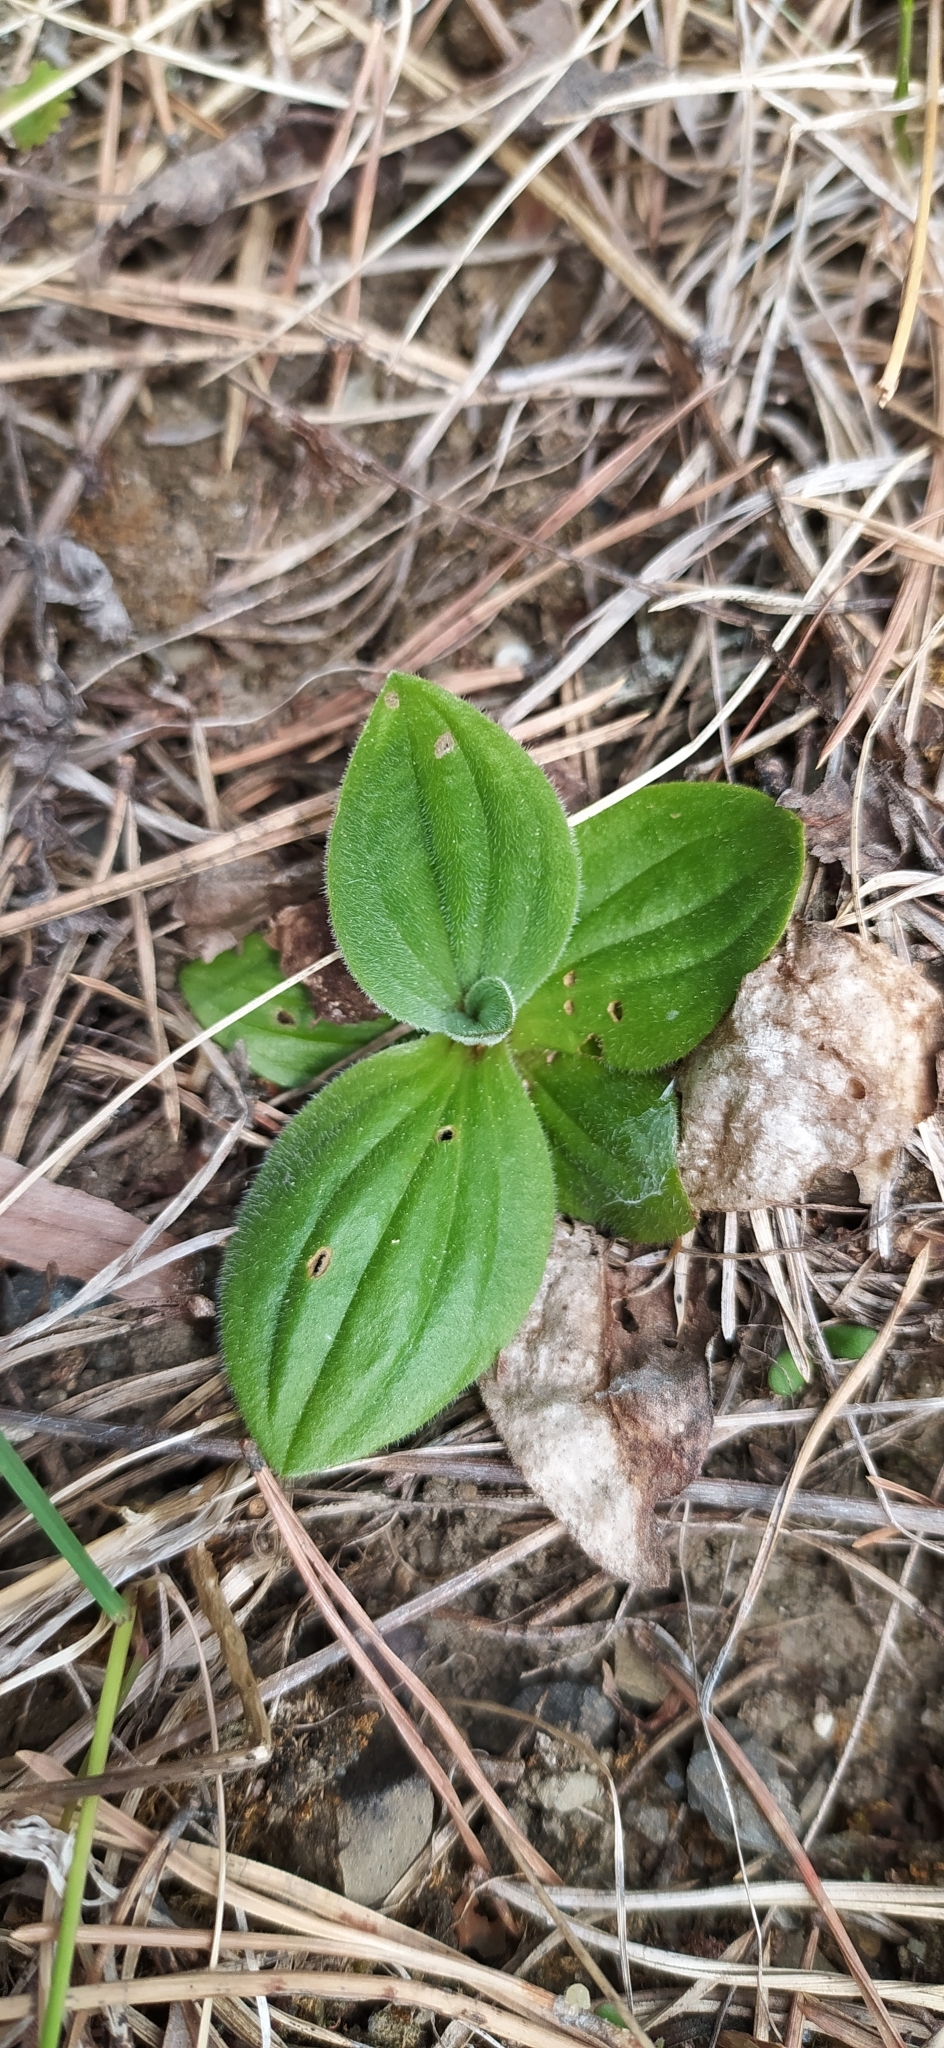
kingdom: Plantae
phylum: Tracheophyta
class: Magnoliopsida
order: Lamiales
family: Plantaginaceae
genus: Plantago
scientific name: Plantago media
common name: Hoary plantain
